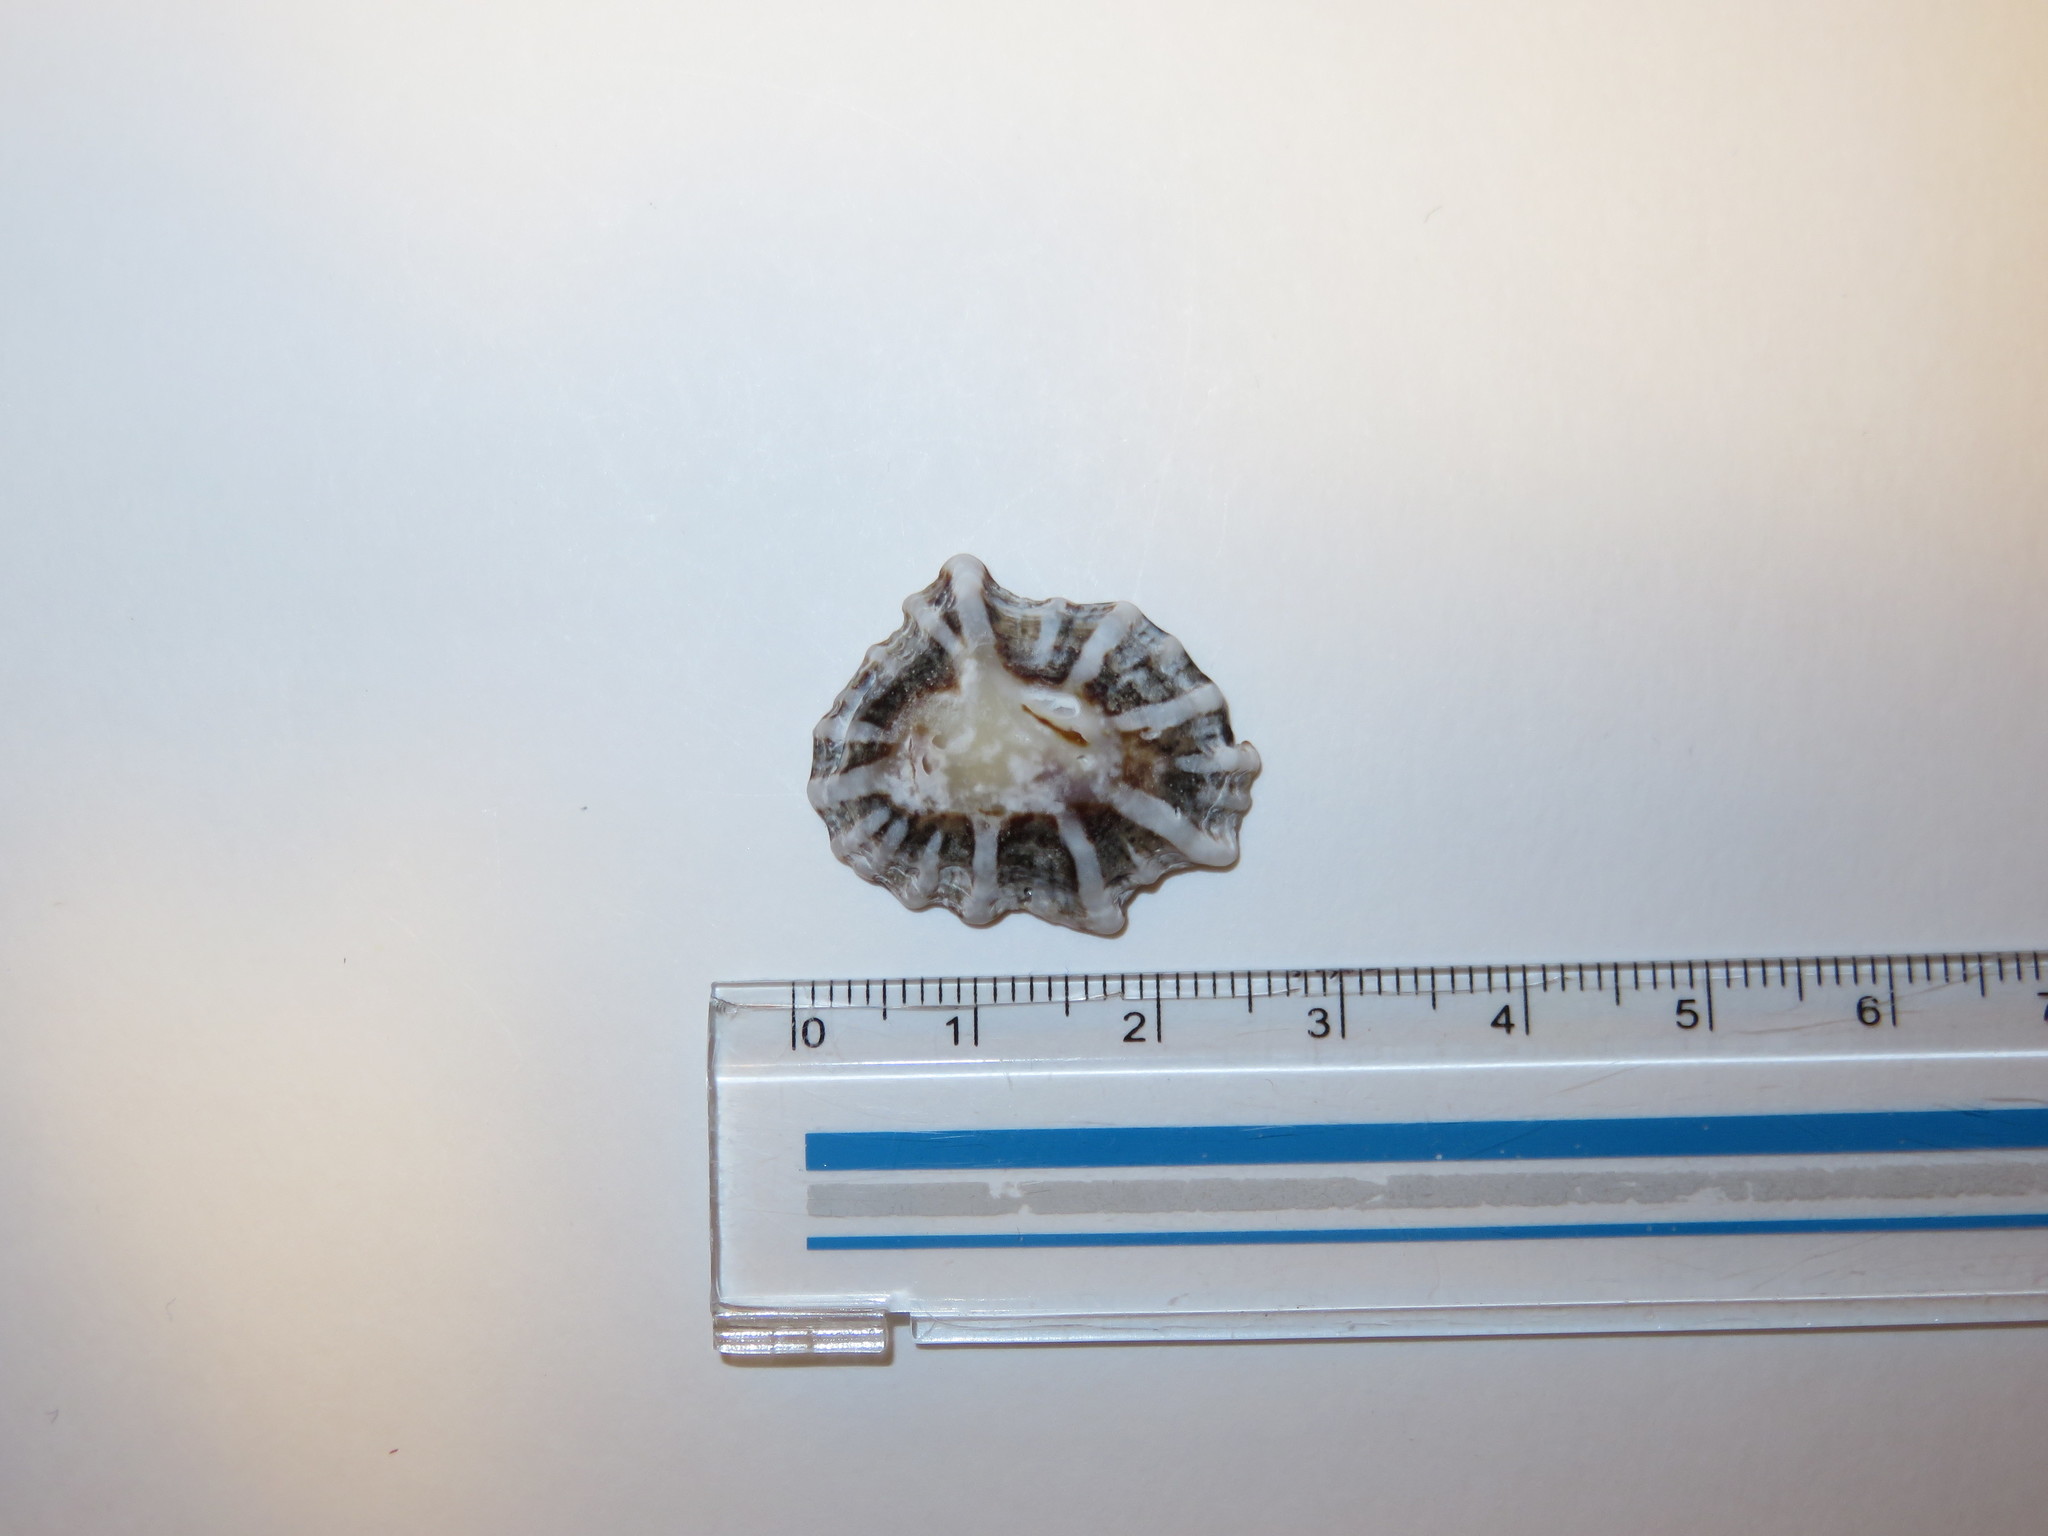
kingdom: Animalia
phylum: Mollusca
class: Gastropoda
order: Siphonariida
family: Siphonariidae
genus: Siphonaria
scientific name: Siphonaria sirius
